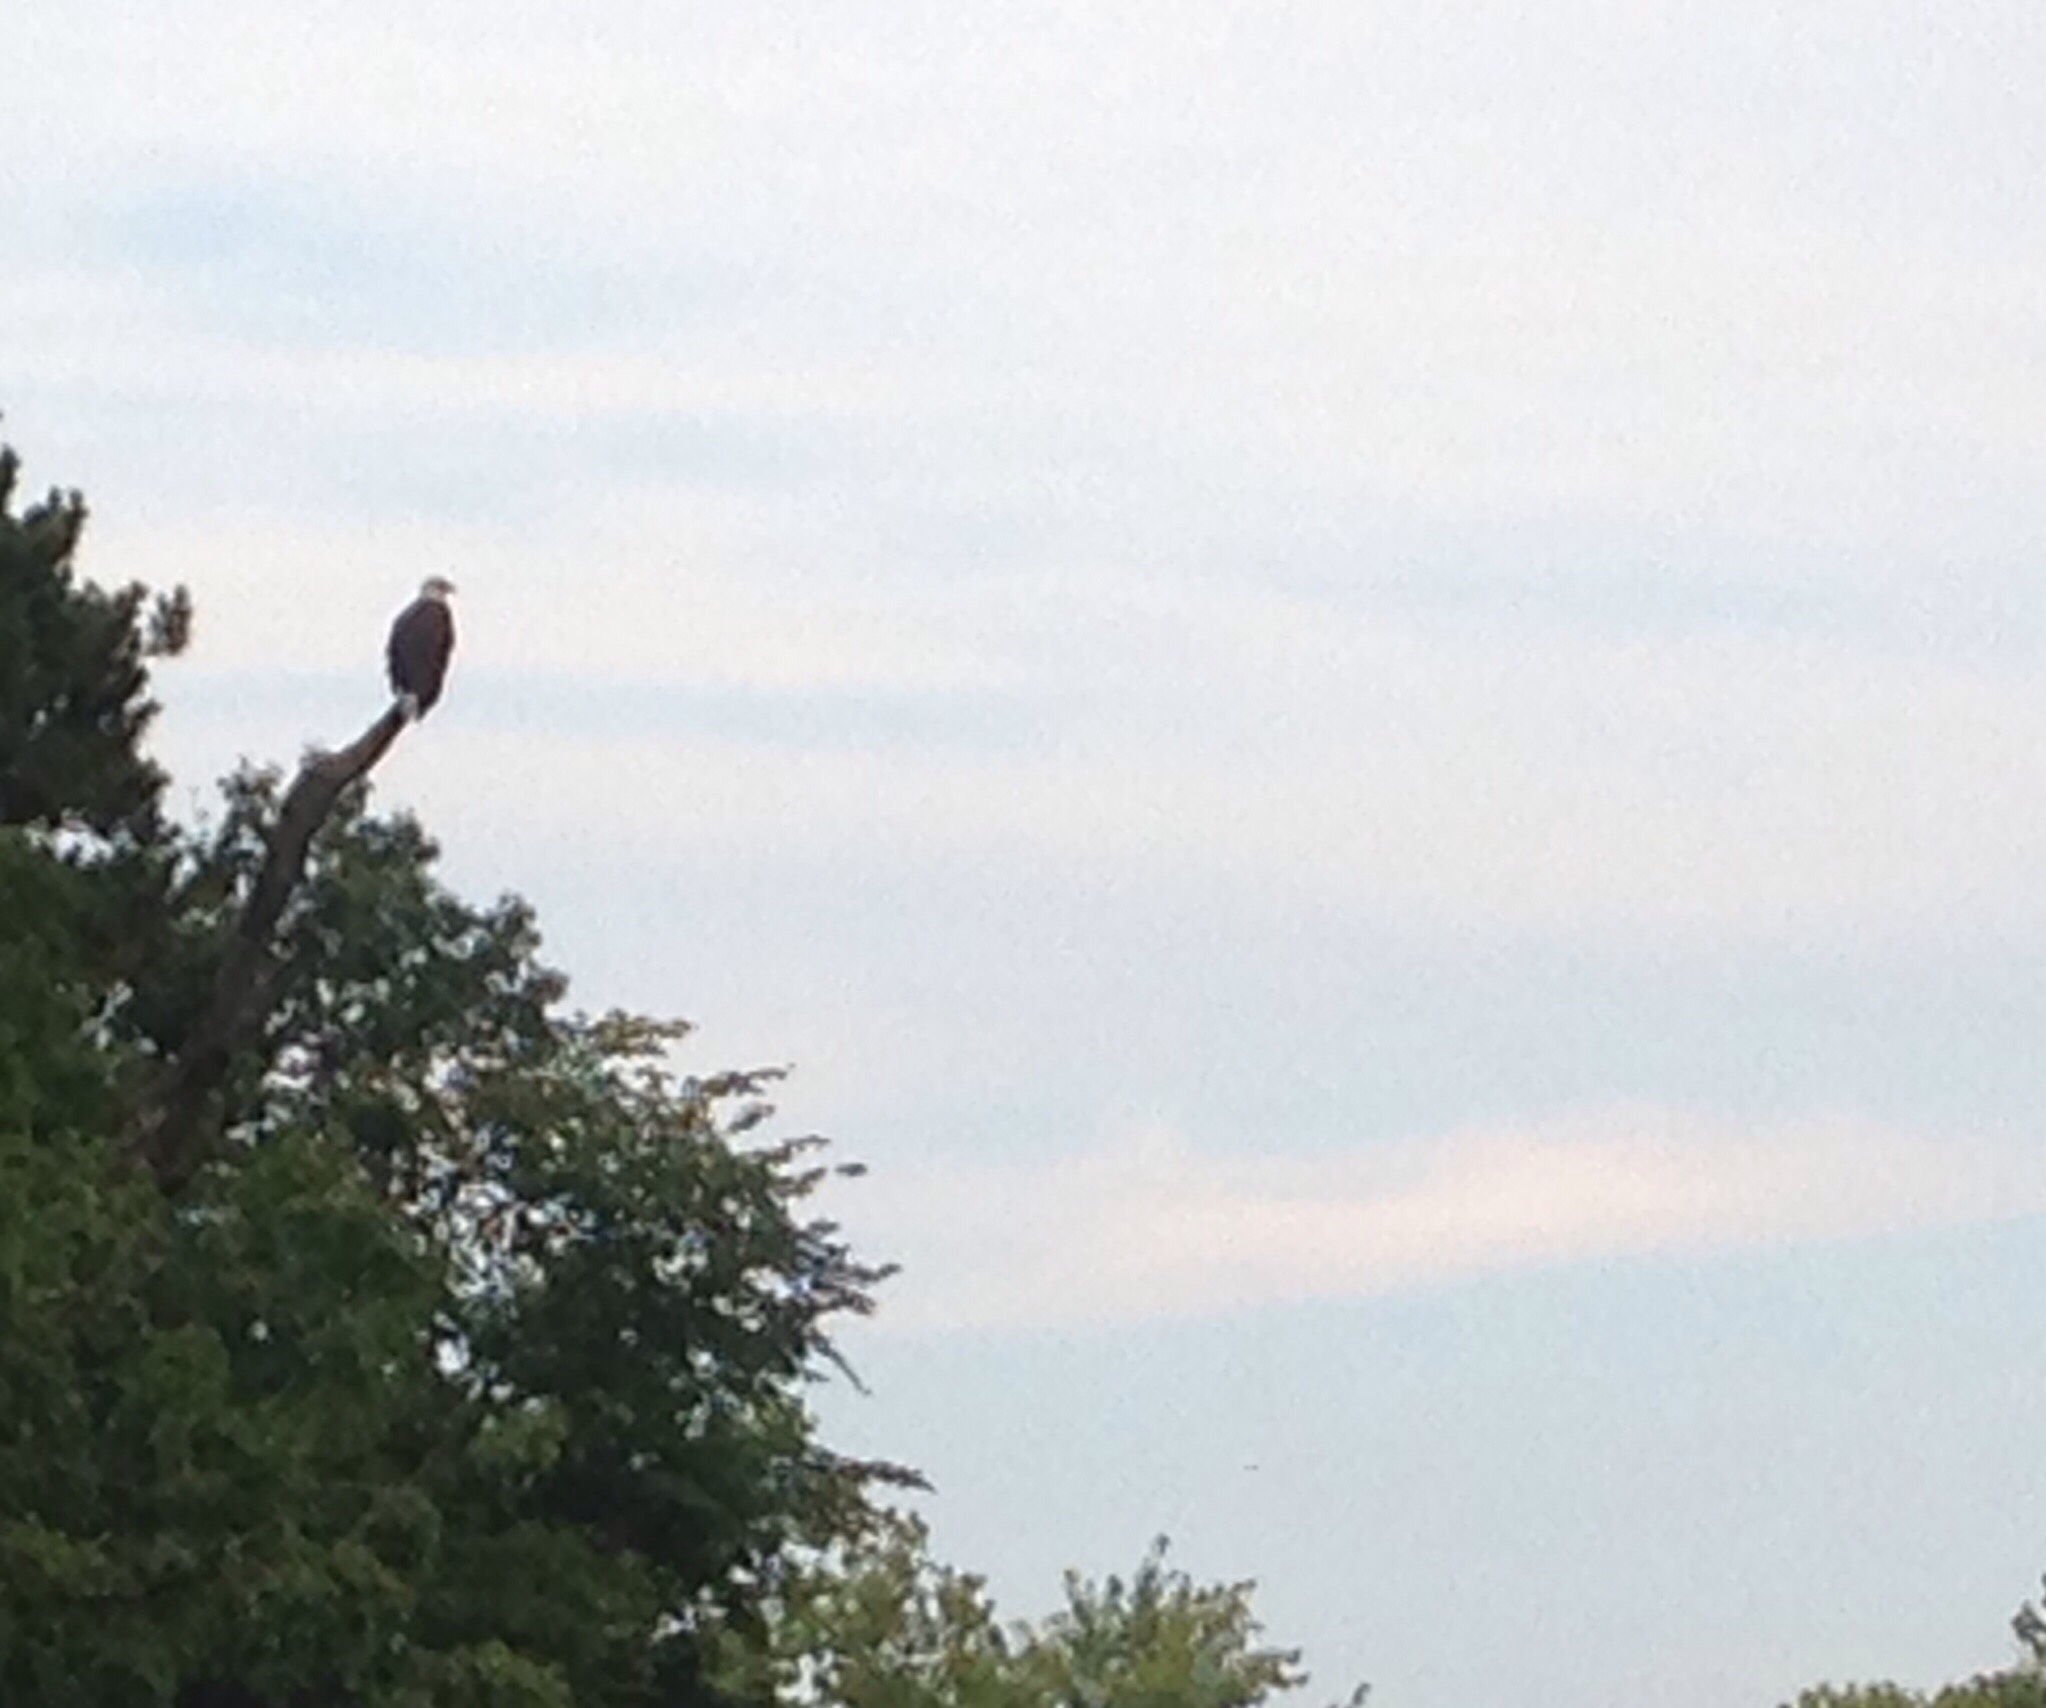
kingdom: Animalia
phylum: Chordata
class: Aves
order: Accipitriformes
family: Accipitridae
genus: Haliaeetus
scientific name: Haliaeetus leucocephalus
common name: Bald eagle
